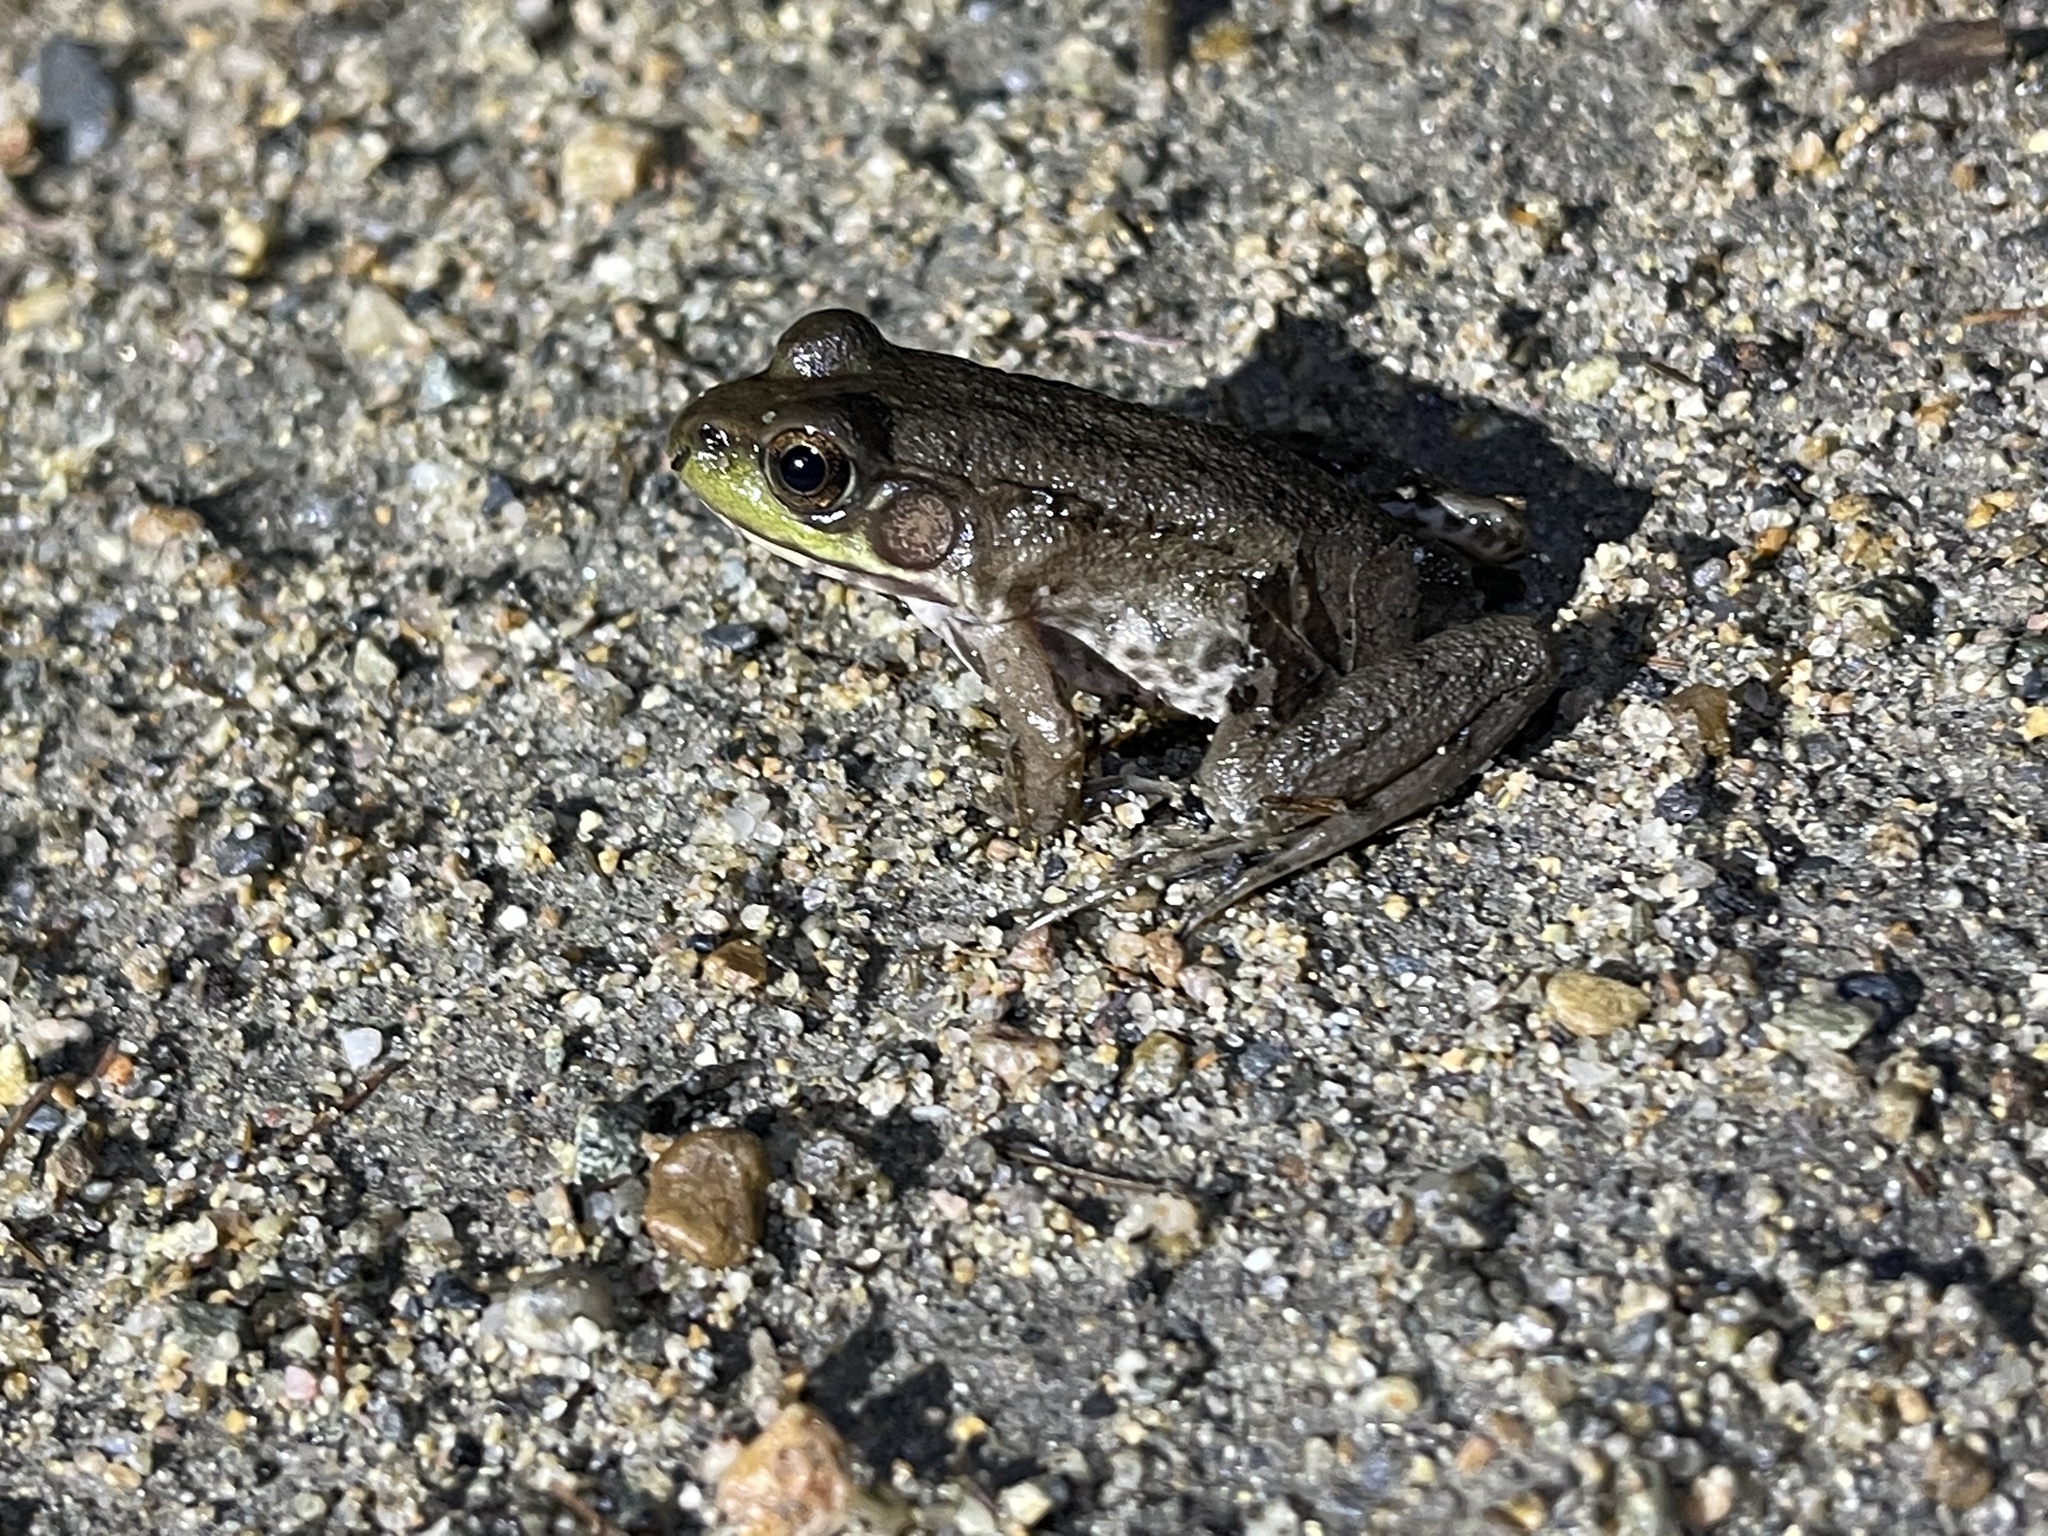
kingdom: Animalia
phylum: Chordata
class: Amphibia
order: Anura
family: Ranidae
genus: Lithobates
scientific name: Lithobates clamitans
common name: Green frog
